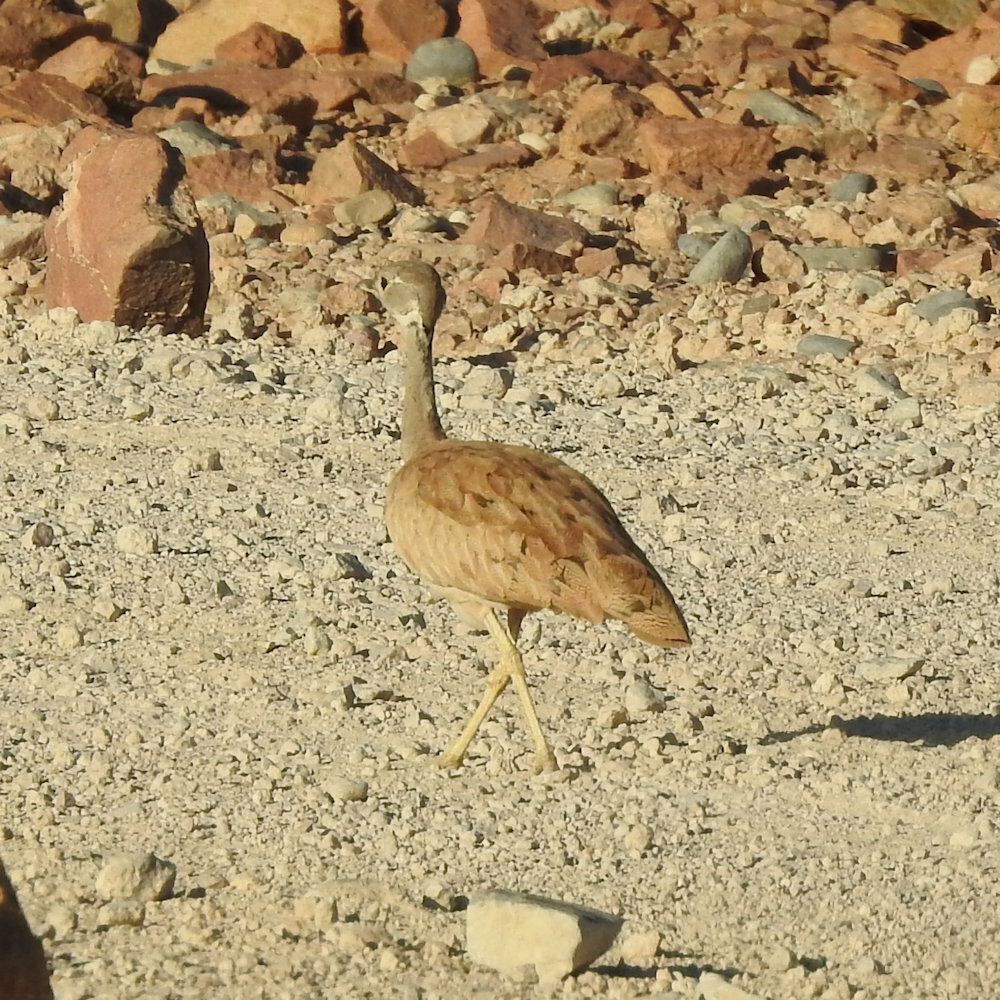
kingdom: Animalia
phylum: Chordata
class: Aves
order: Otidiformes
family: Otididae
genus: Heterotetrax
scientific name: Heterotetrax rueppelii
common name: Rüppell's korhaan
